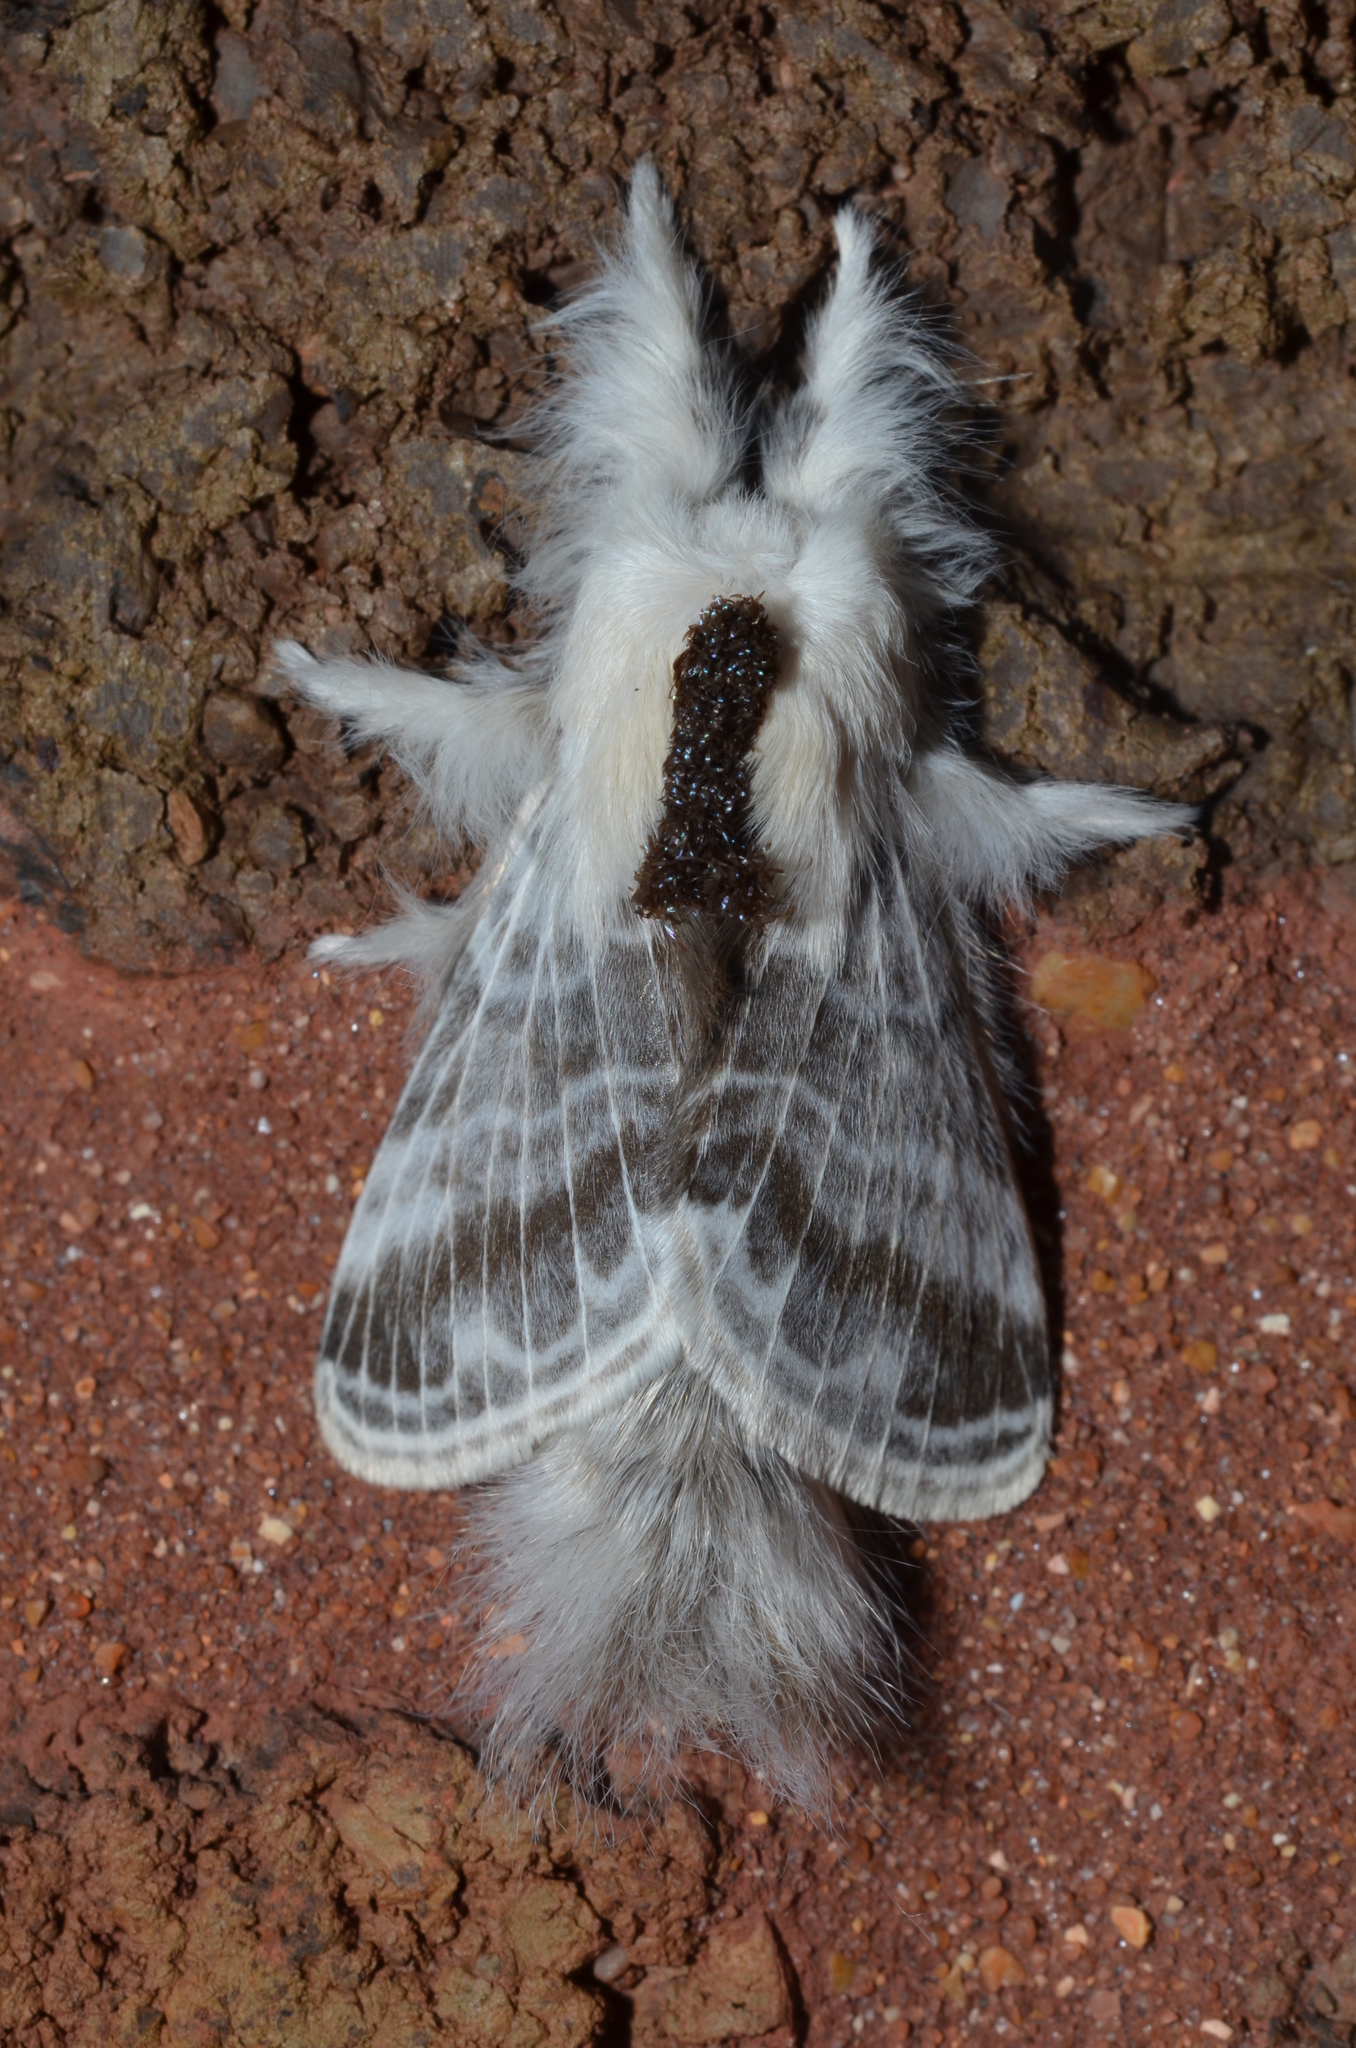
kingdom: Animalia
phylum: Arthropoda
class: Insecta
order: Lepidoptera
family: Lasiocampidae
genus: Tolype
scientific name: Tolype velleda
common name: Large tolype moth
